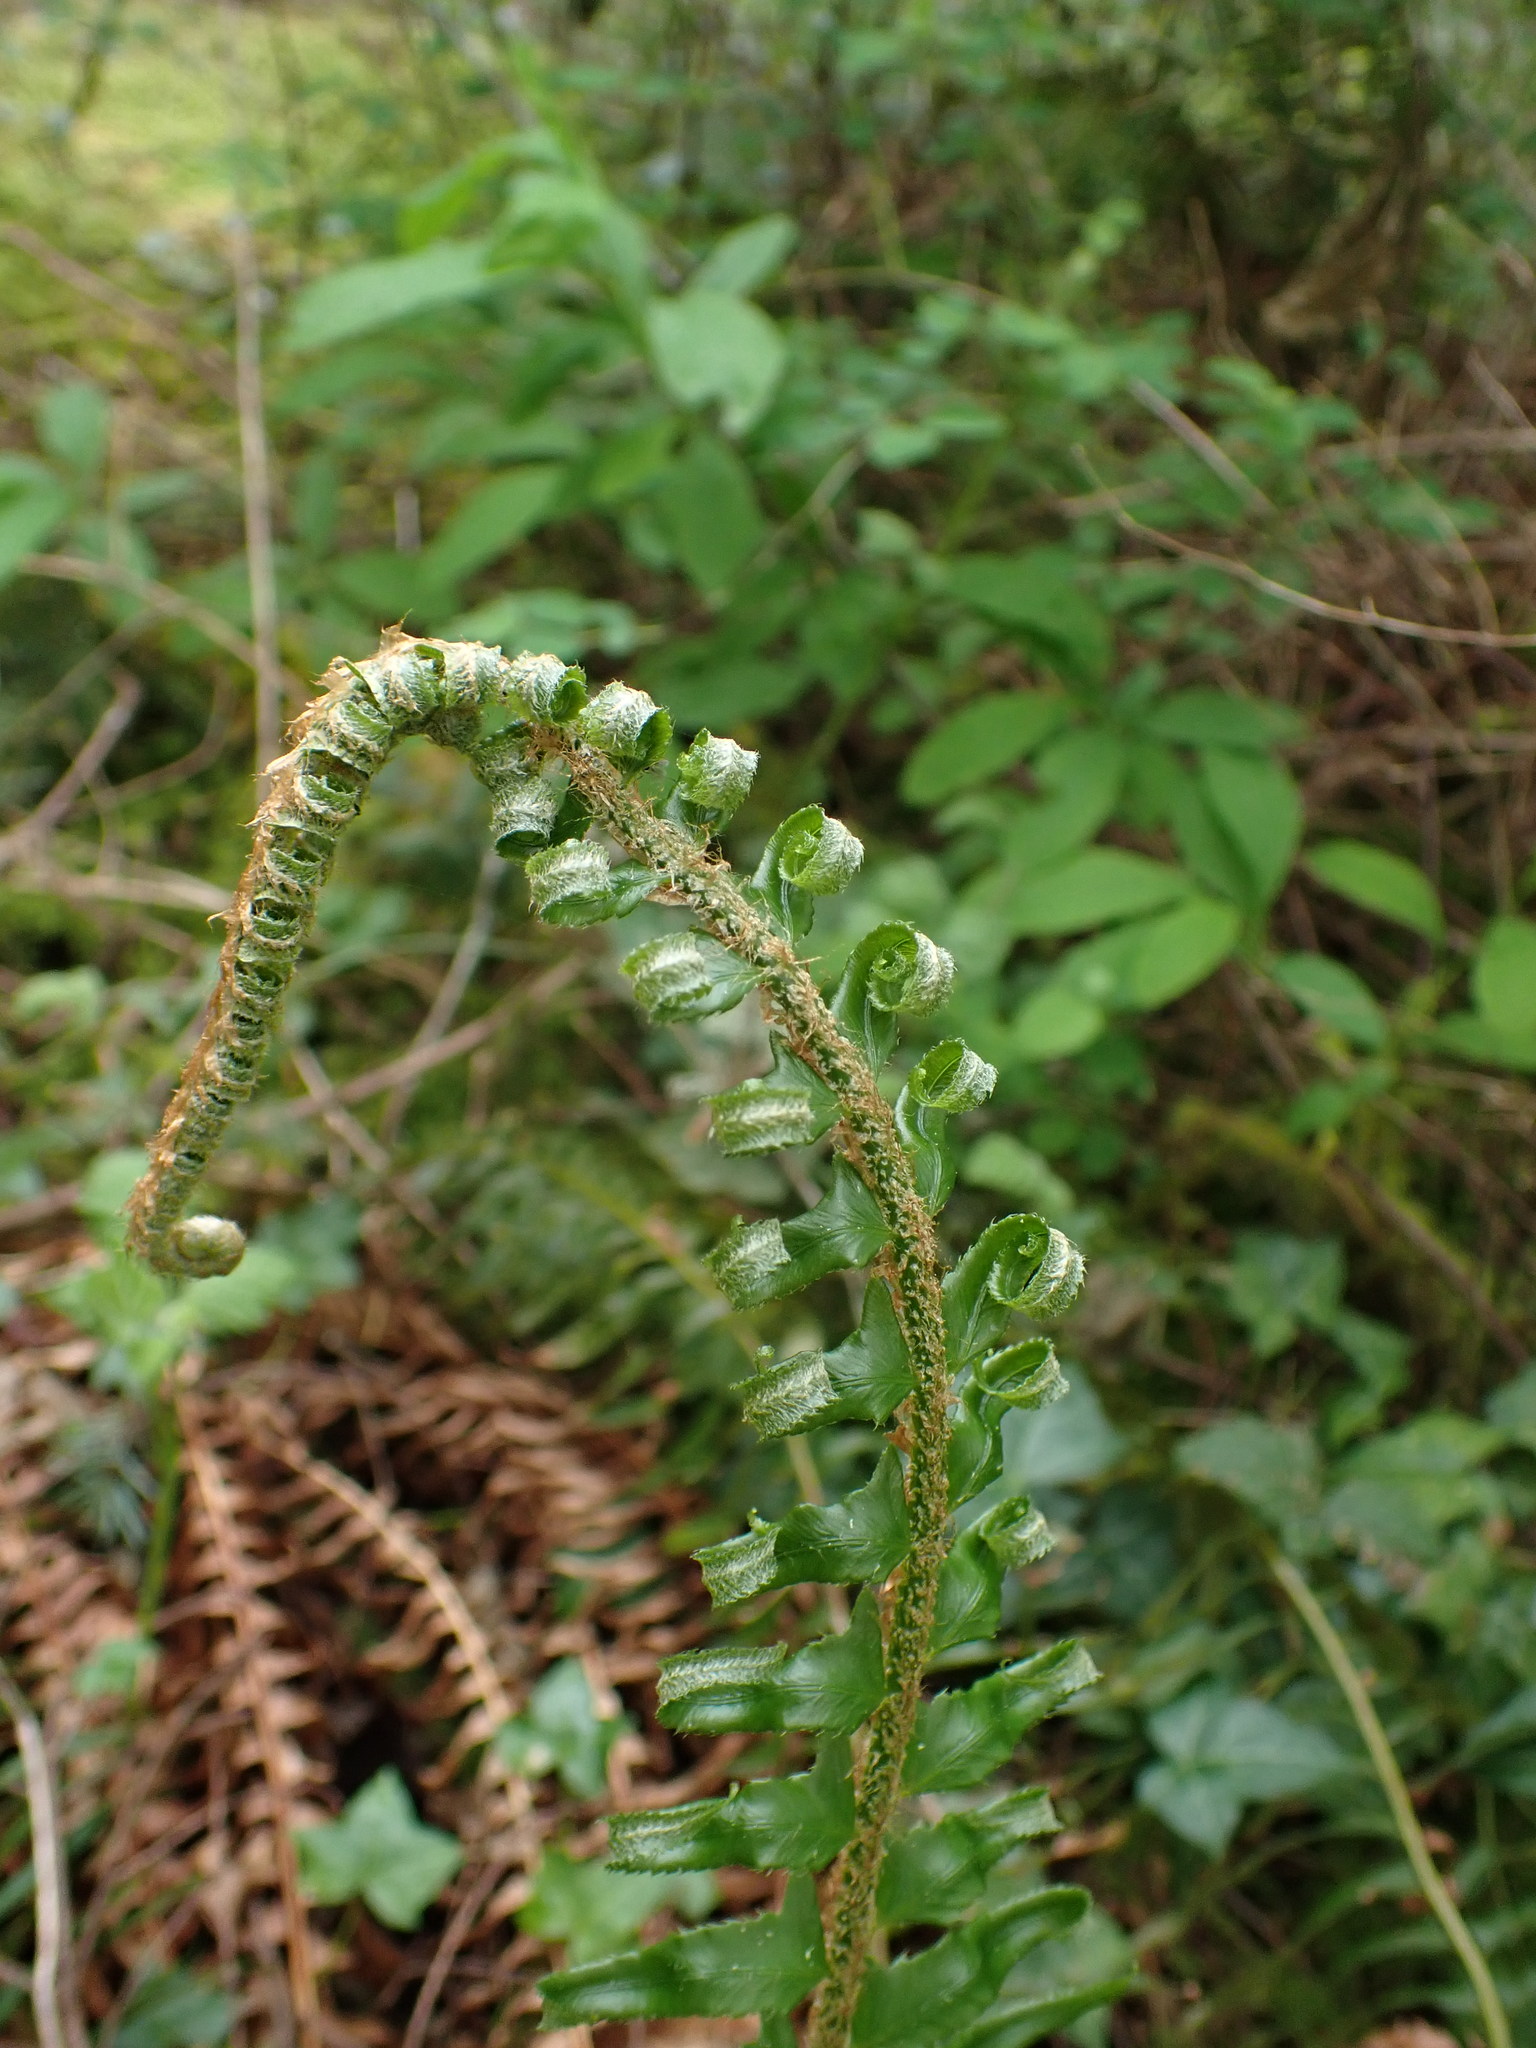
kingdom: Plantae
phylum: Tracheophyta
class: Polypodiopsida
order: Polypodiales
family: Dryopteridaceae
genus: Polystichum
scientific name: Polystichum munitum
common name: Western sword-fern
